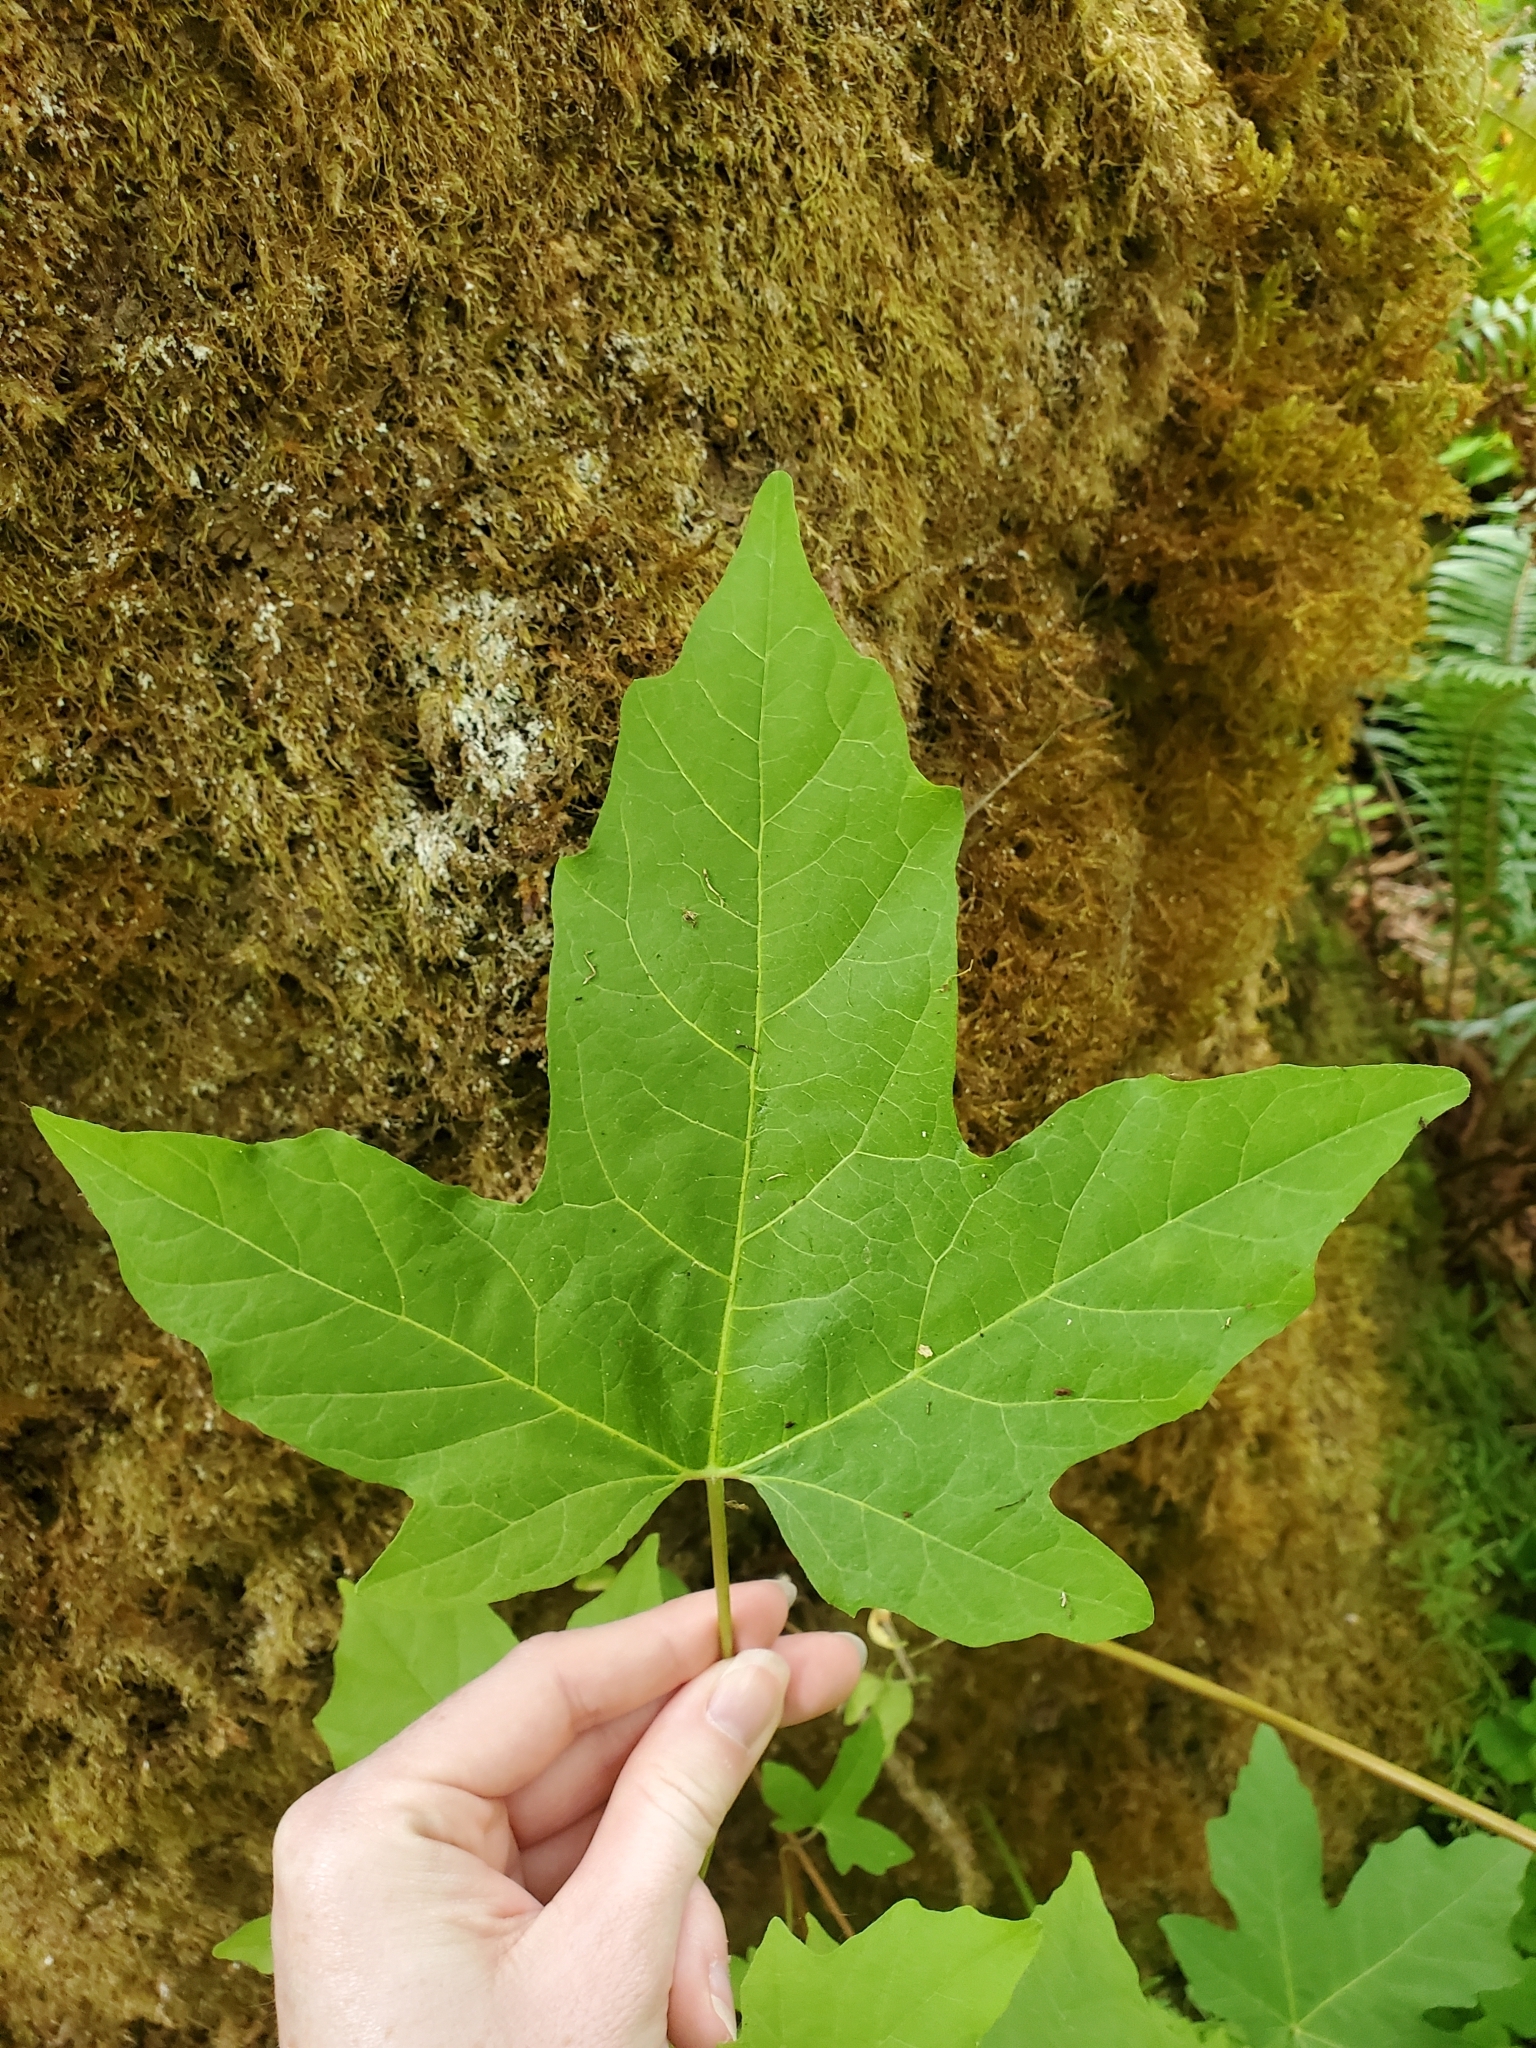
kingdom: Plantae
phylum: Tracheophyta
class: Magnoliopsida
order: Sapindales
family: Sapindaceae
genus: Acer
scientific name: Acer macrophyllum
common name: Oregon maple
